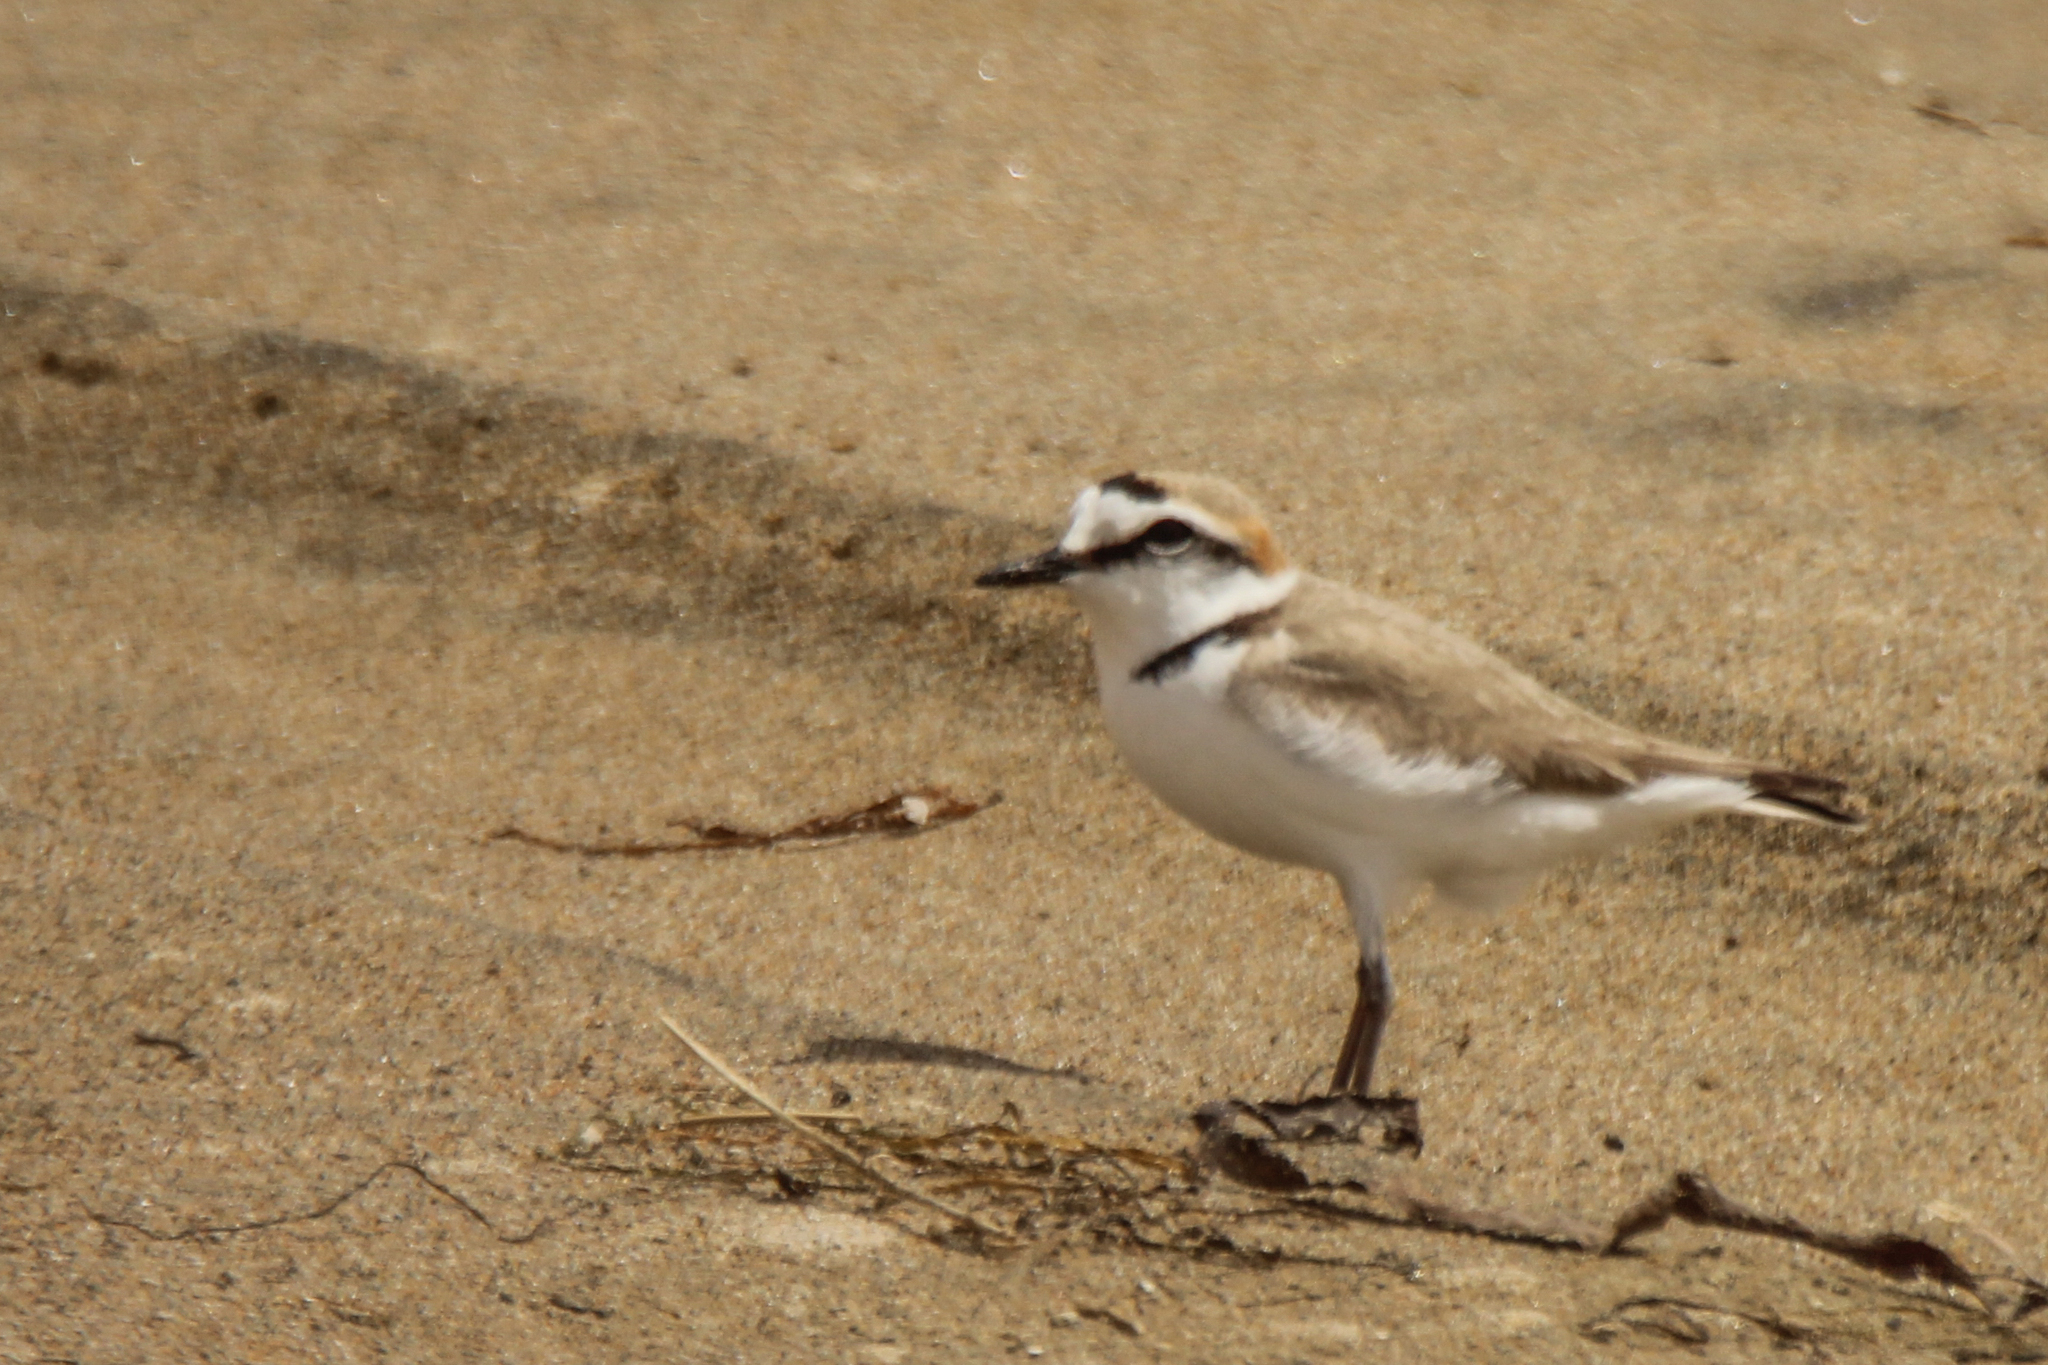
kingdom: Animalia
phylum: Chordata
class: Aves
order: Charadriiformes
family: Charadriidae
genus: Charadrius
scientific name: Charadrius alexandrinus
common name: Kentish plover
